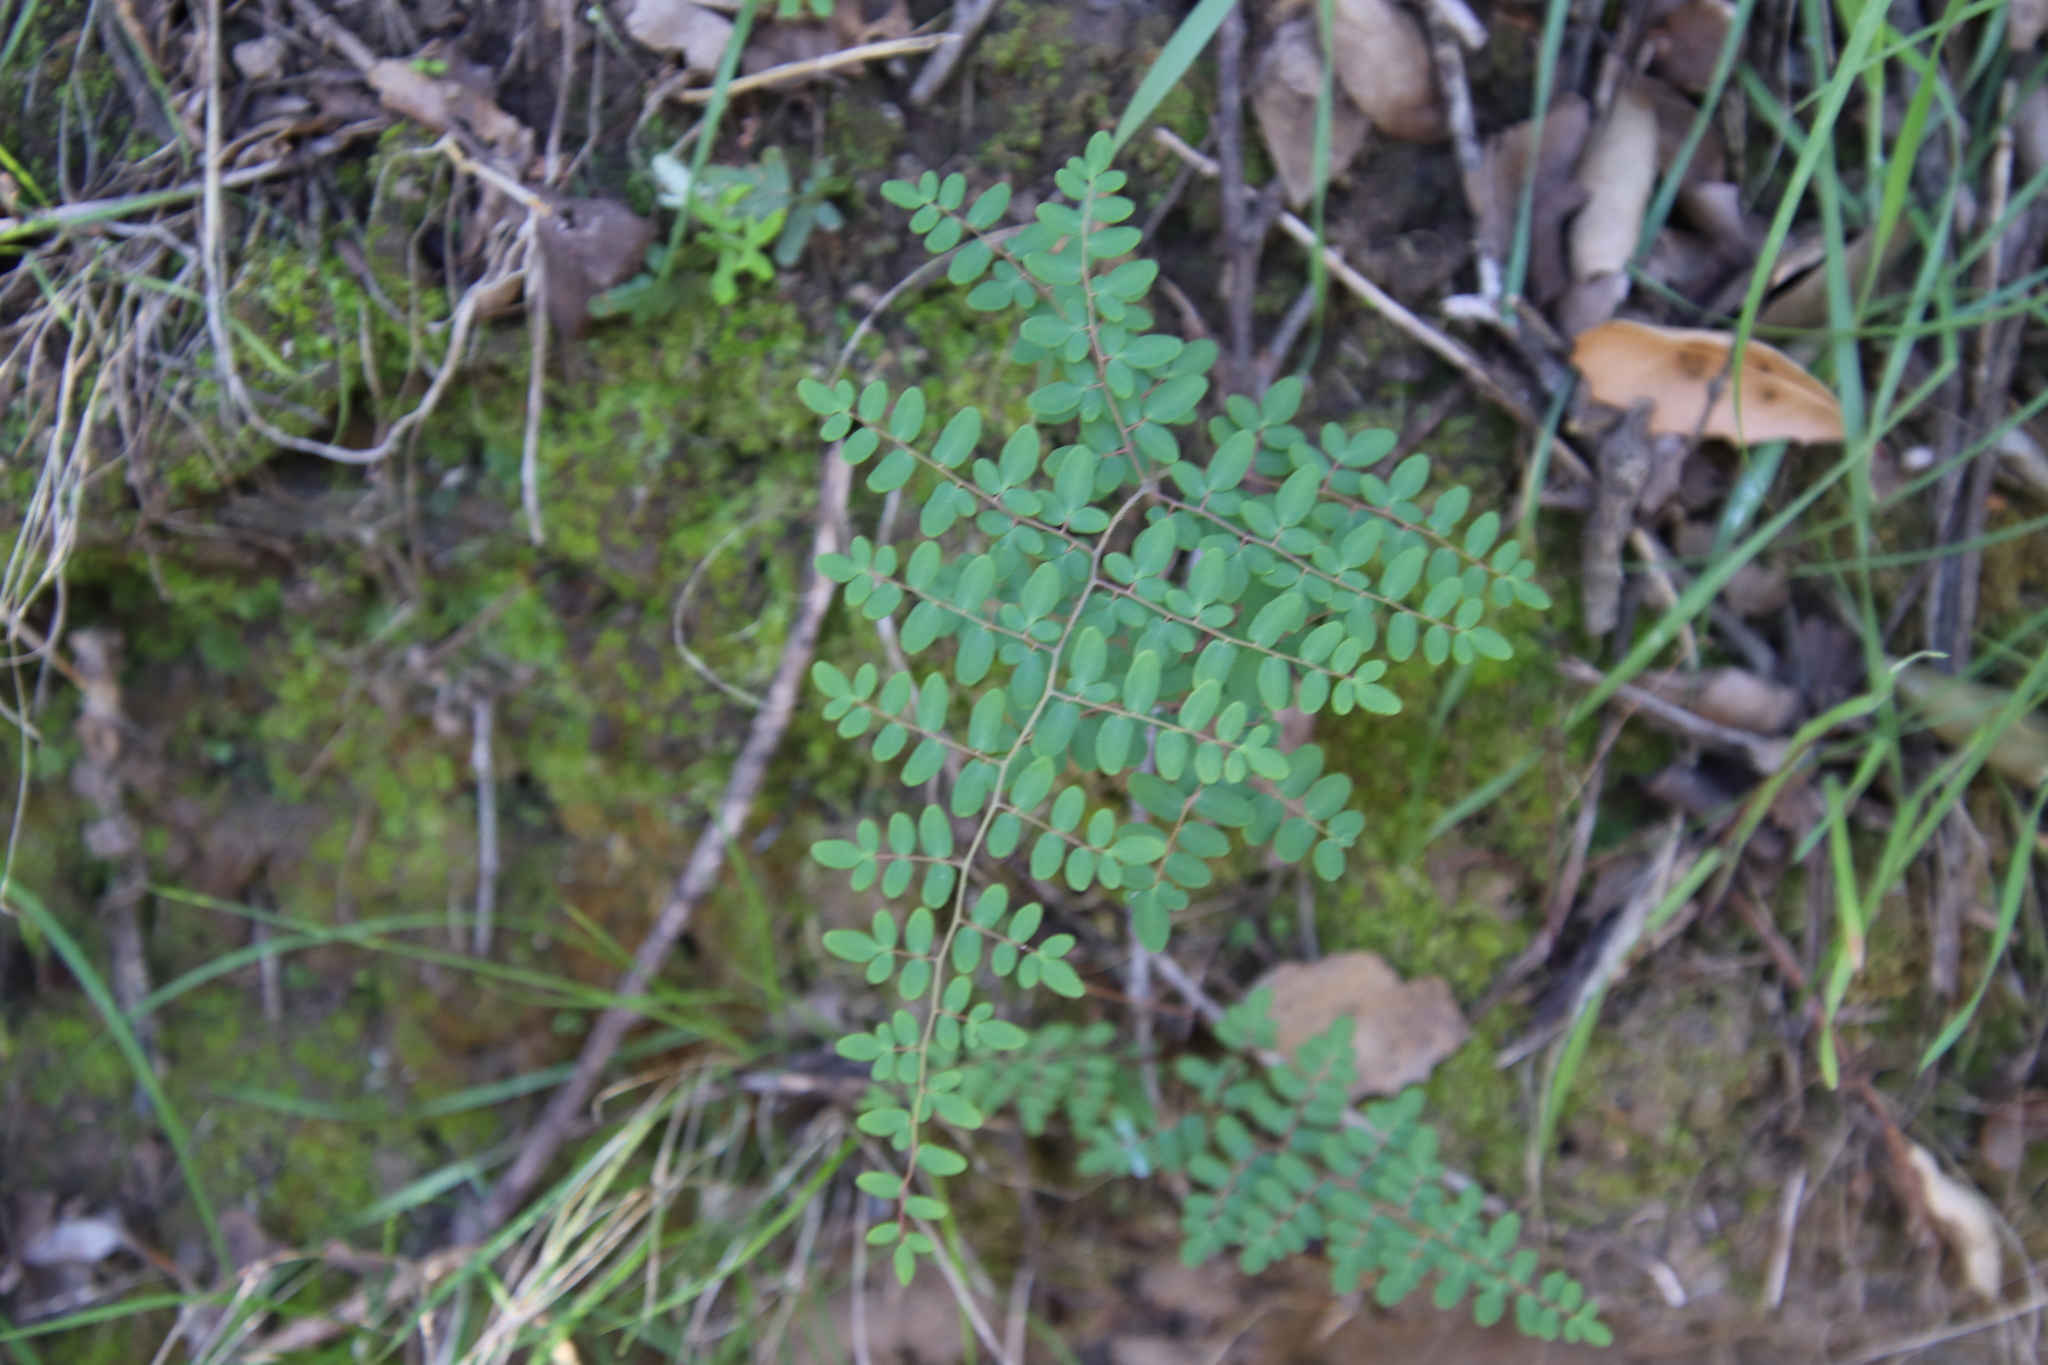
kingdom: Plantae
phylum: Tracheophyta
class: Polypodiopsida
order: Polypodiales
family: Pteridaceae
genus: Pellaea
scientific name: Pellaea andromedifolia
